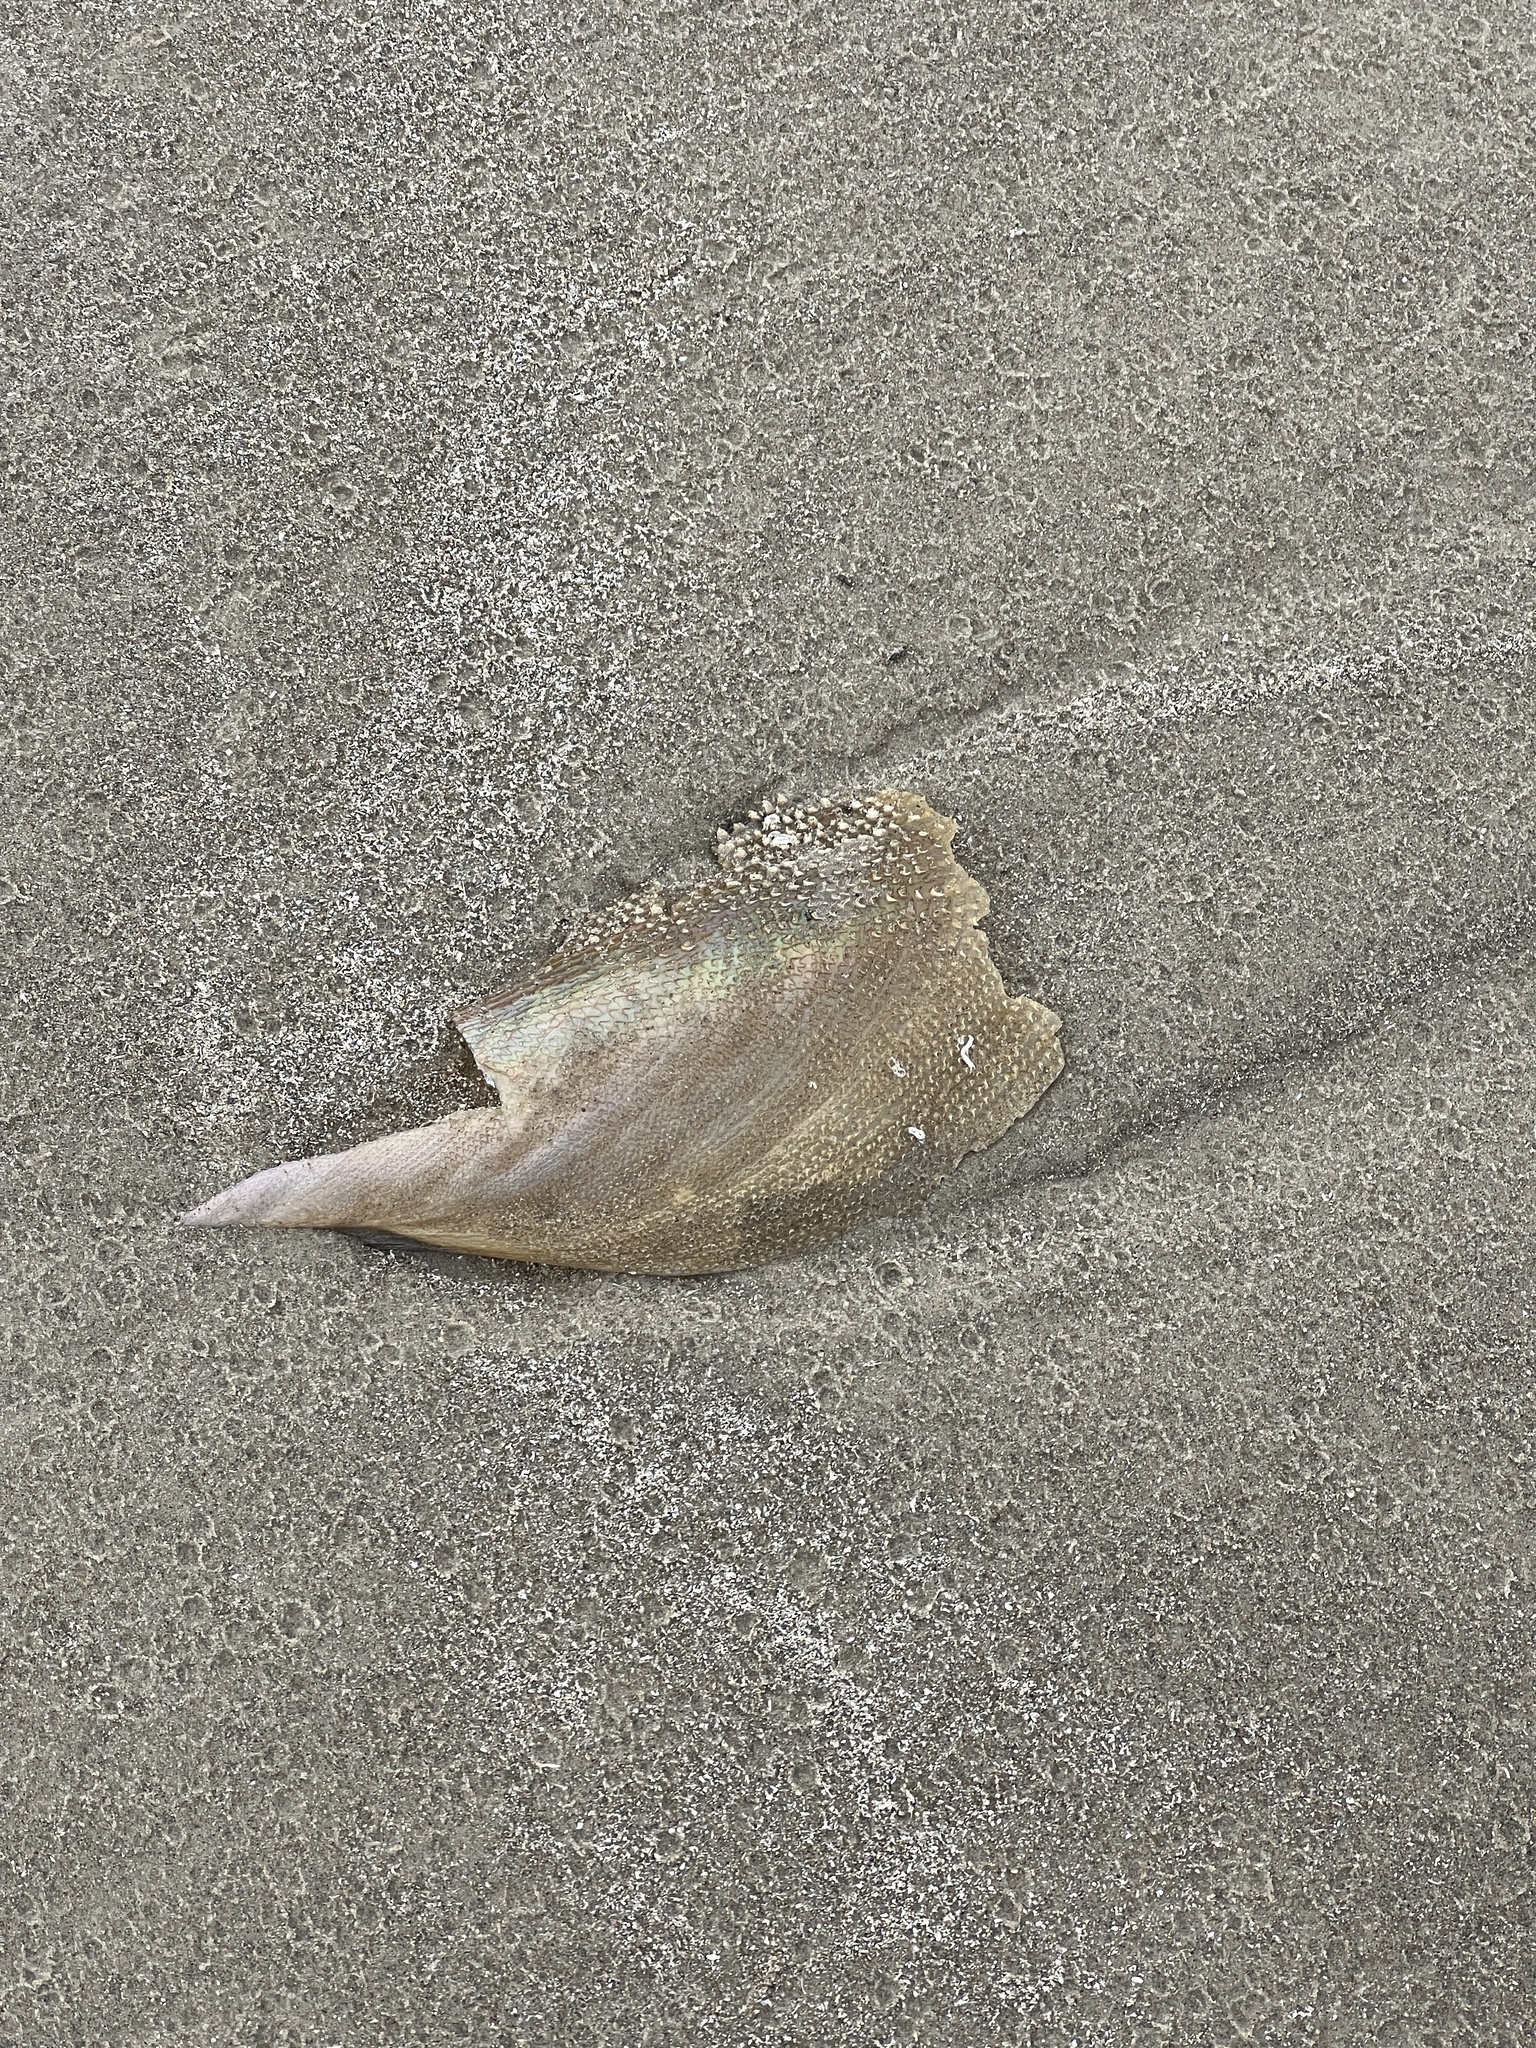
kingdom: Animalia
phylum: Mollusca
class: Bivalvia
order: Ostreida
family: Pinnidae
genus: Atrina
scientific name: Atrina serrata
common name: Saw-toothed penshell
